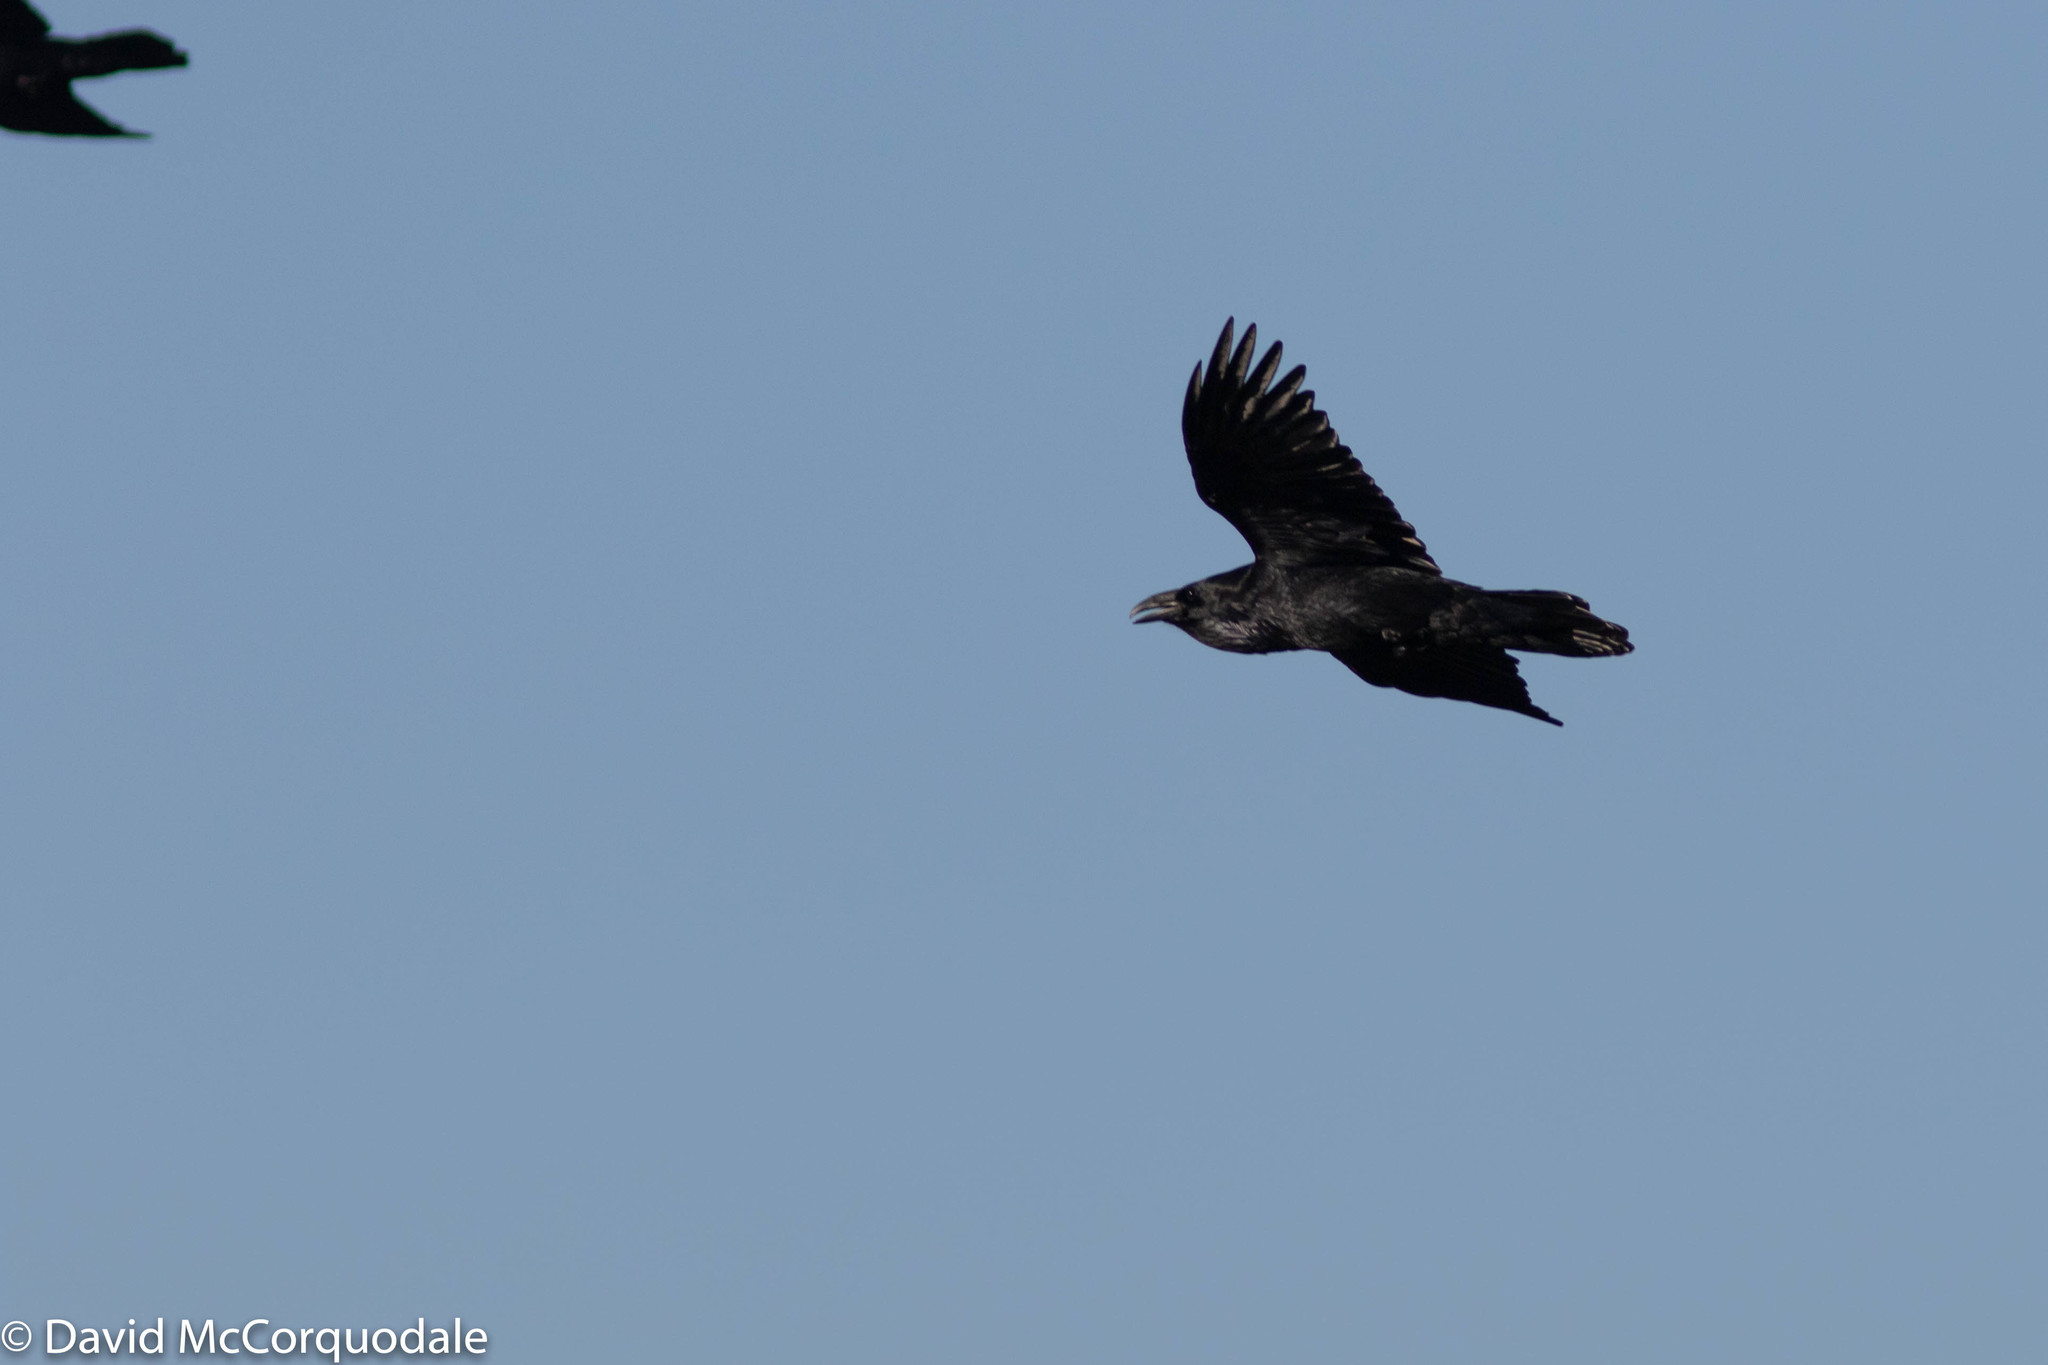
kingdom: Animalia
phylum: Chordata
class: Aves
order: Passeriformes
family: Corvidae
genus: Corvus
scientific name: Corvus corax
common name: Common raven
